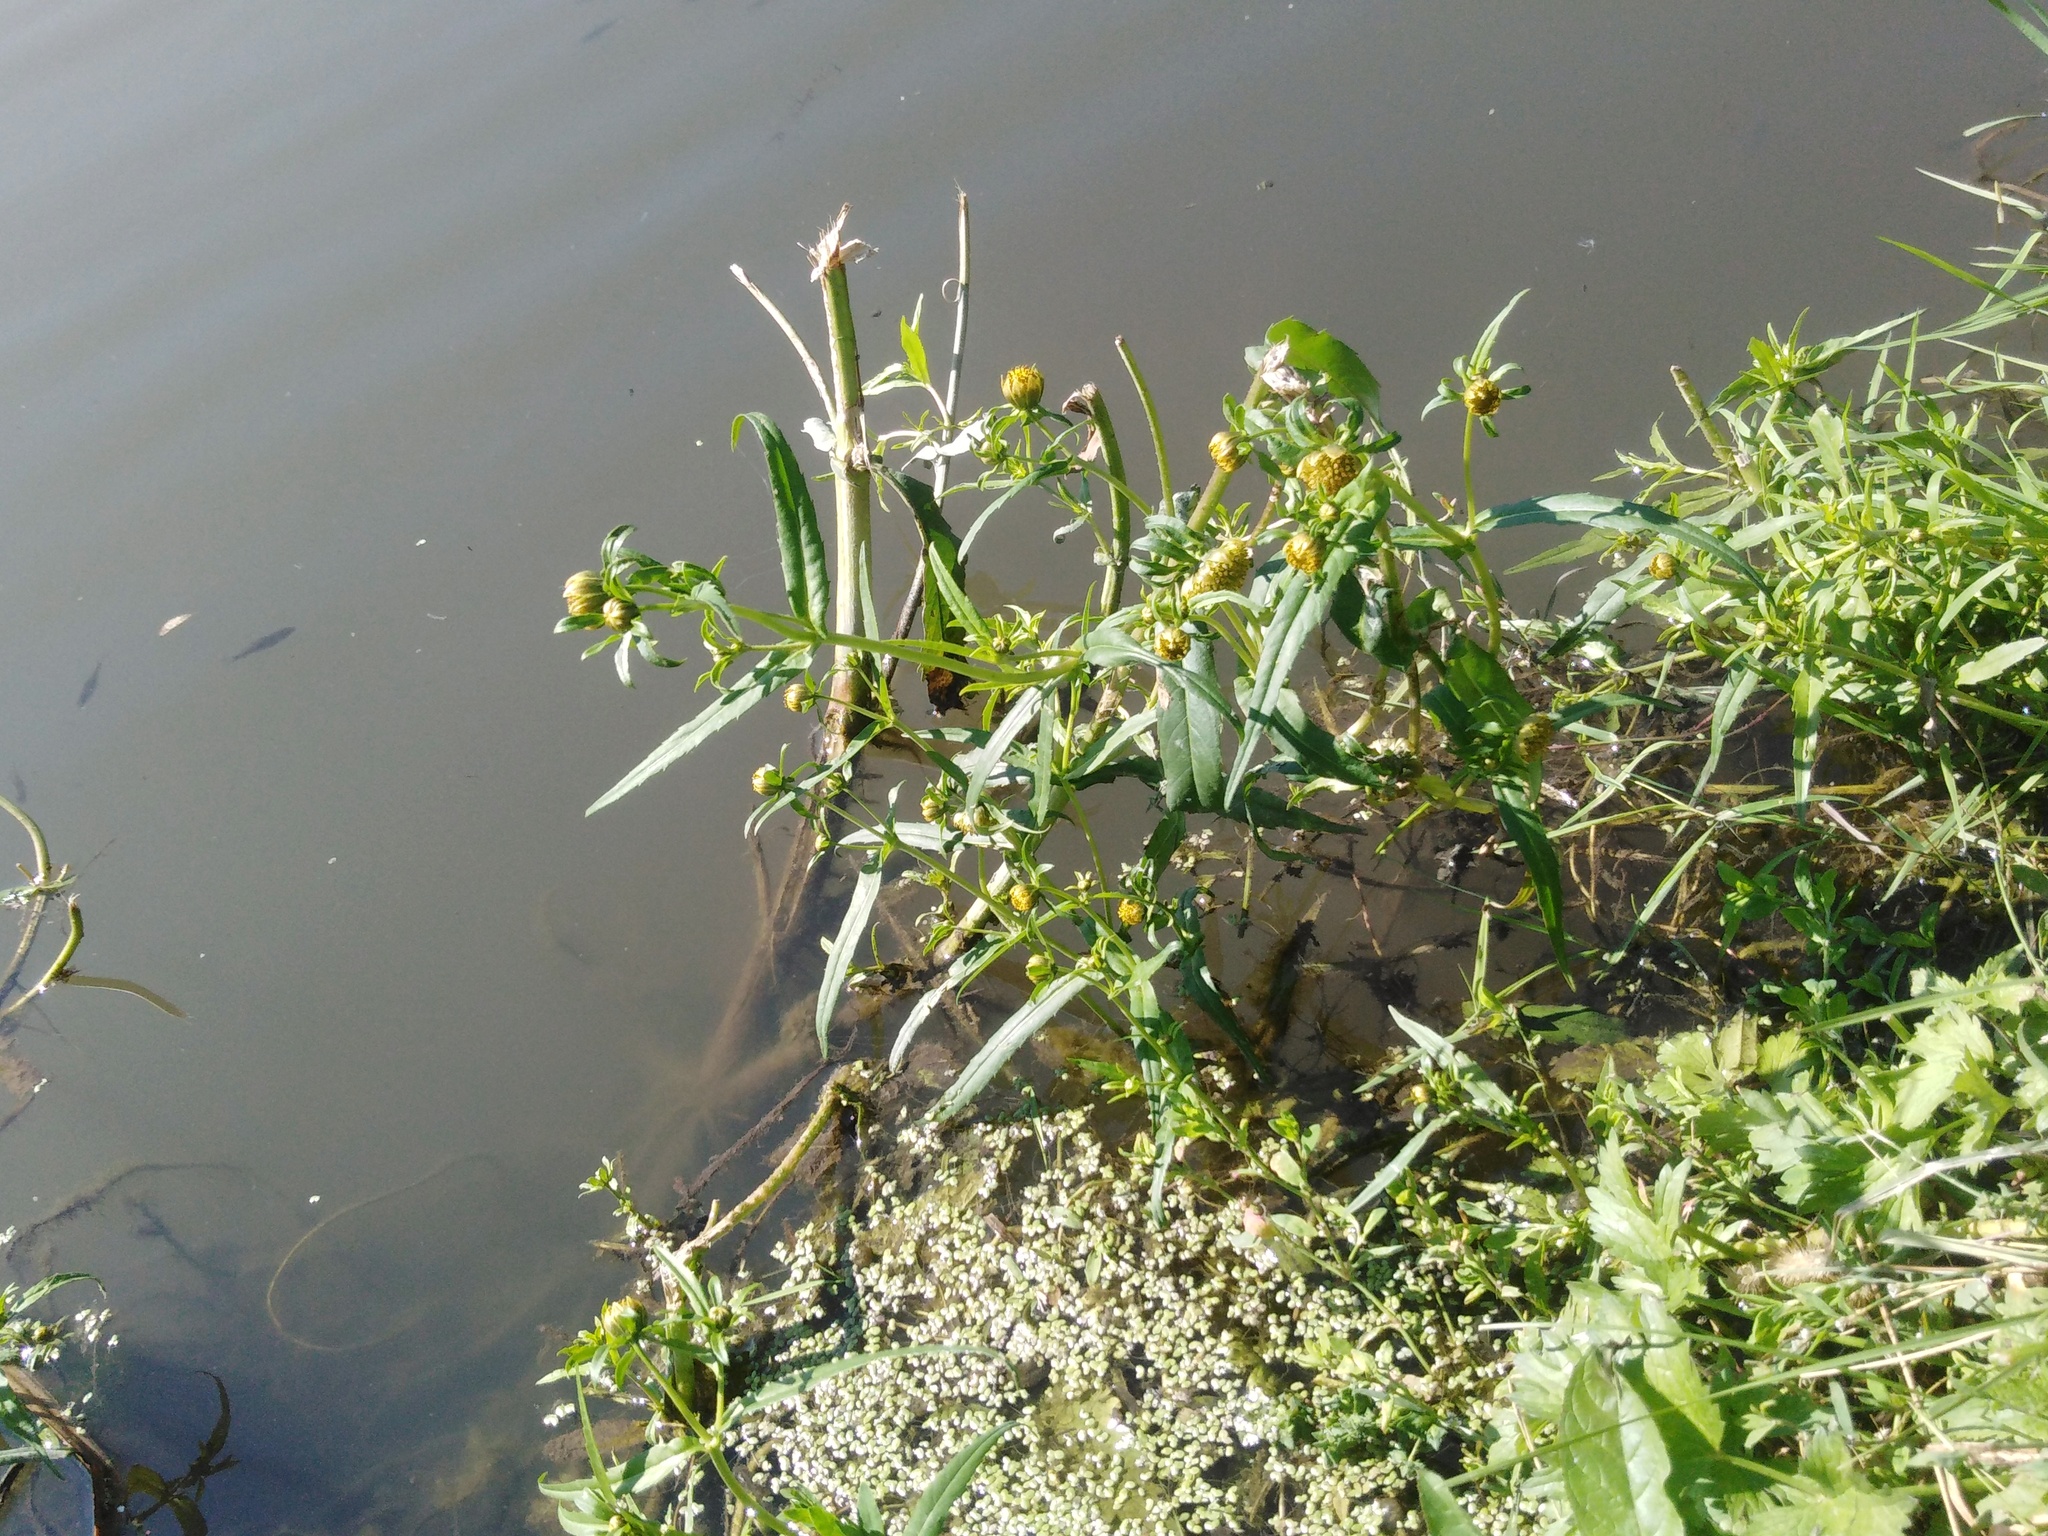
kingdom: Plantae
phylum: Tracheophyta
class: Magnoliopsida
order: Asterales
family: Asteraceae
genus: Bidens
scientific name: Bidens cernua
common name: Nodding bur-marigold
